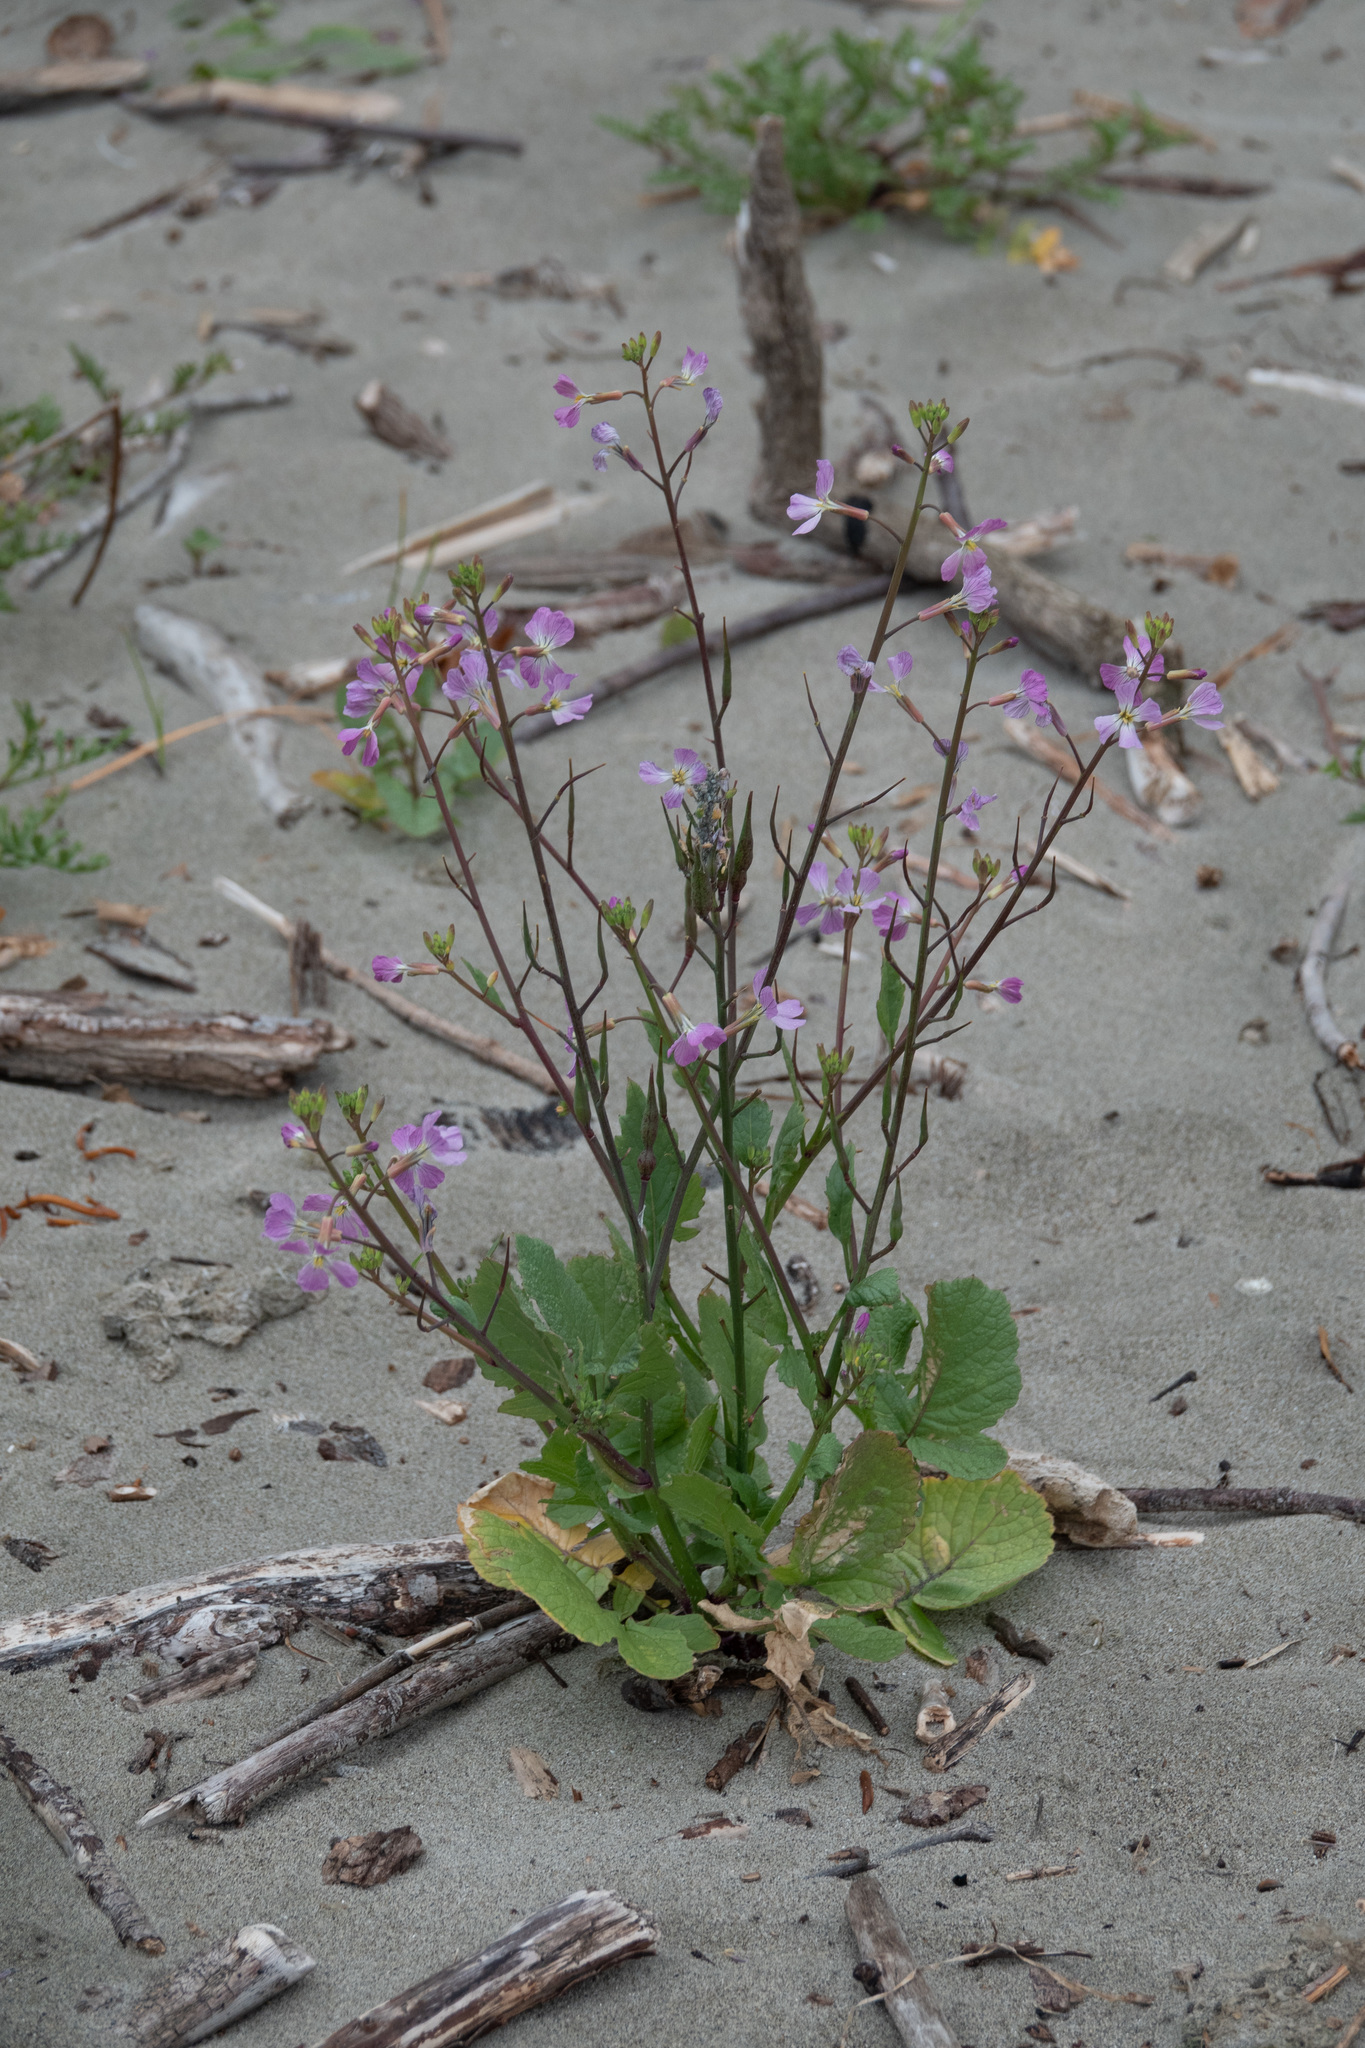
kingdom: Plantae
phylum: Tracheophyta
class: Magnoliopsida
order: Brassicales
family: Brassicaceae
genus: Raphanus
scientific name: Raphanus sativus
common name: Cultivated radish
